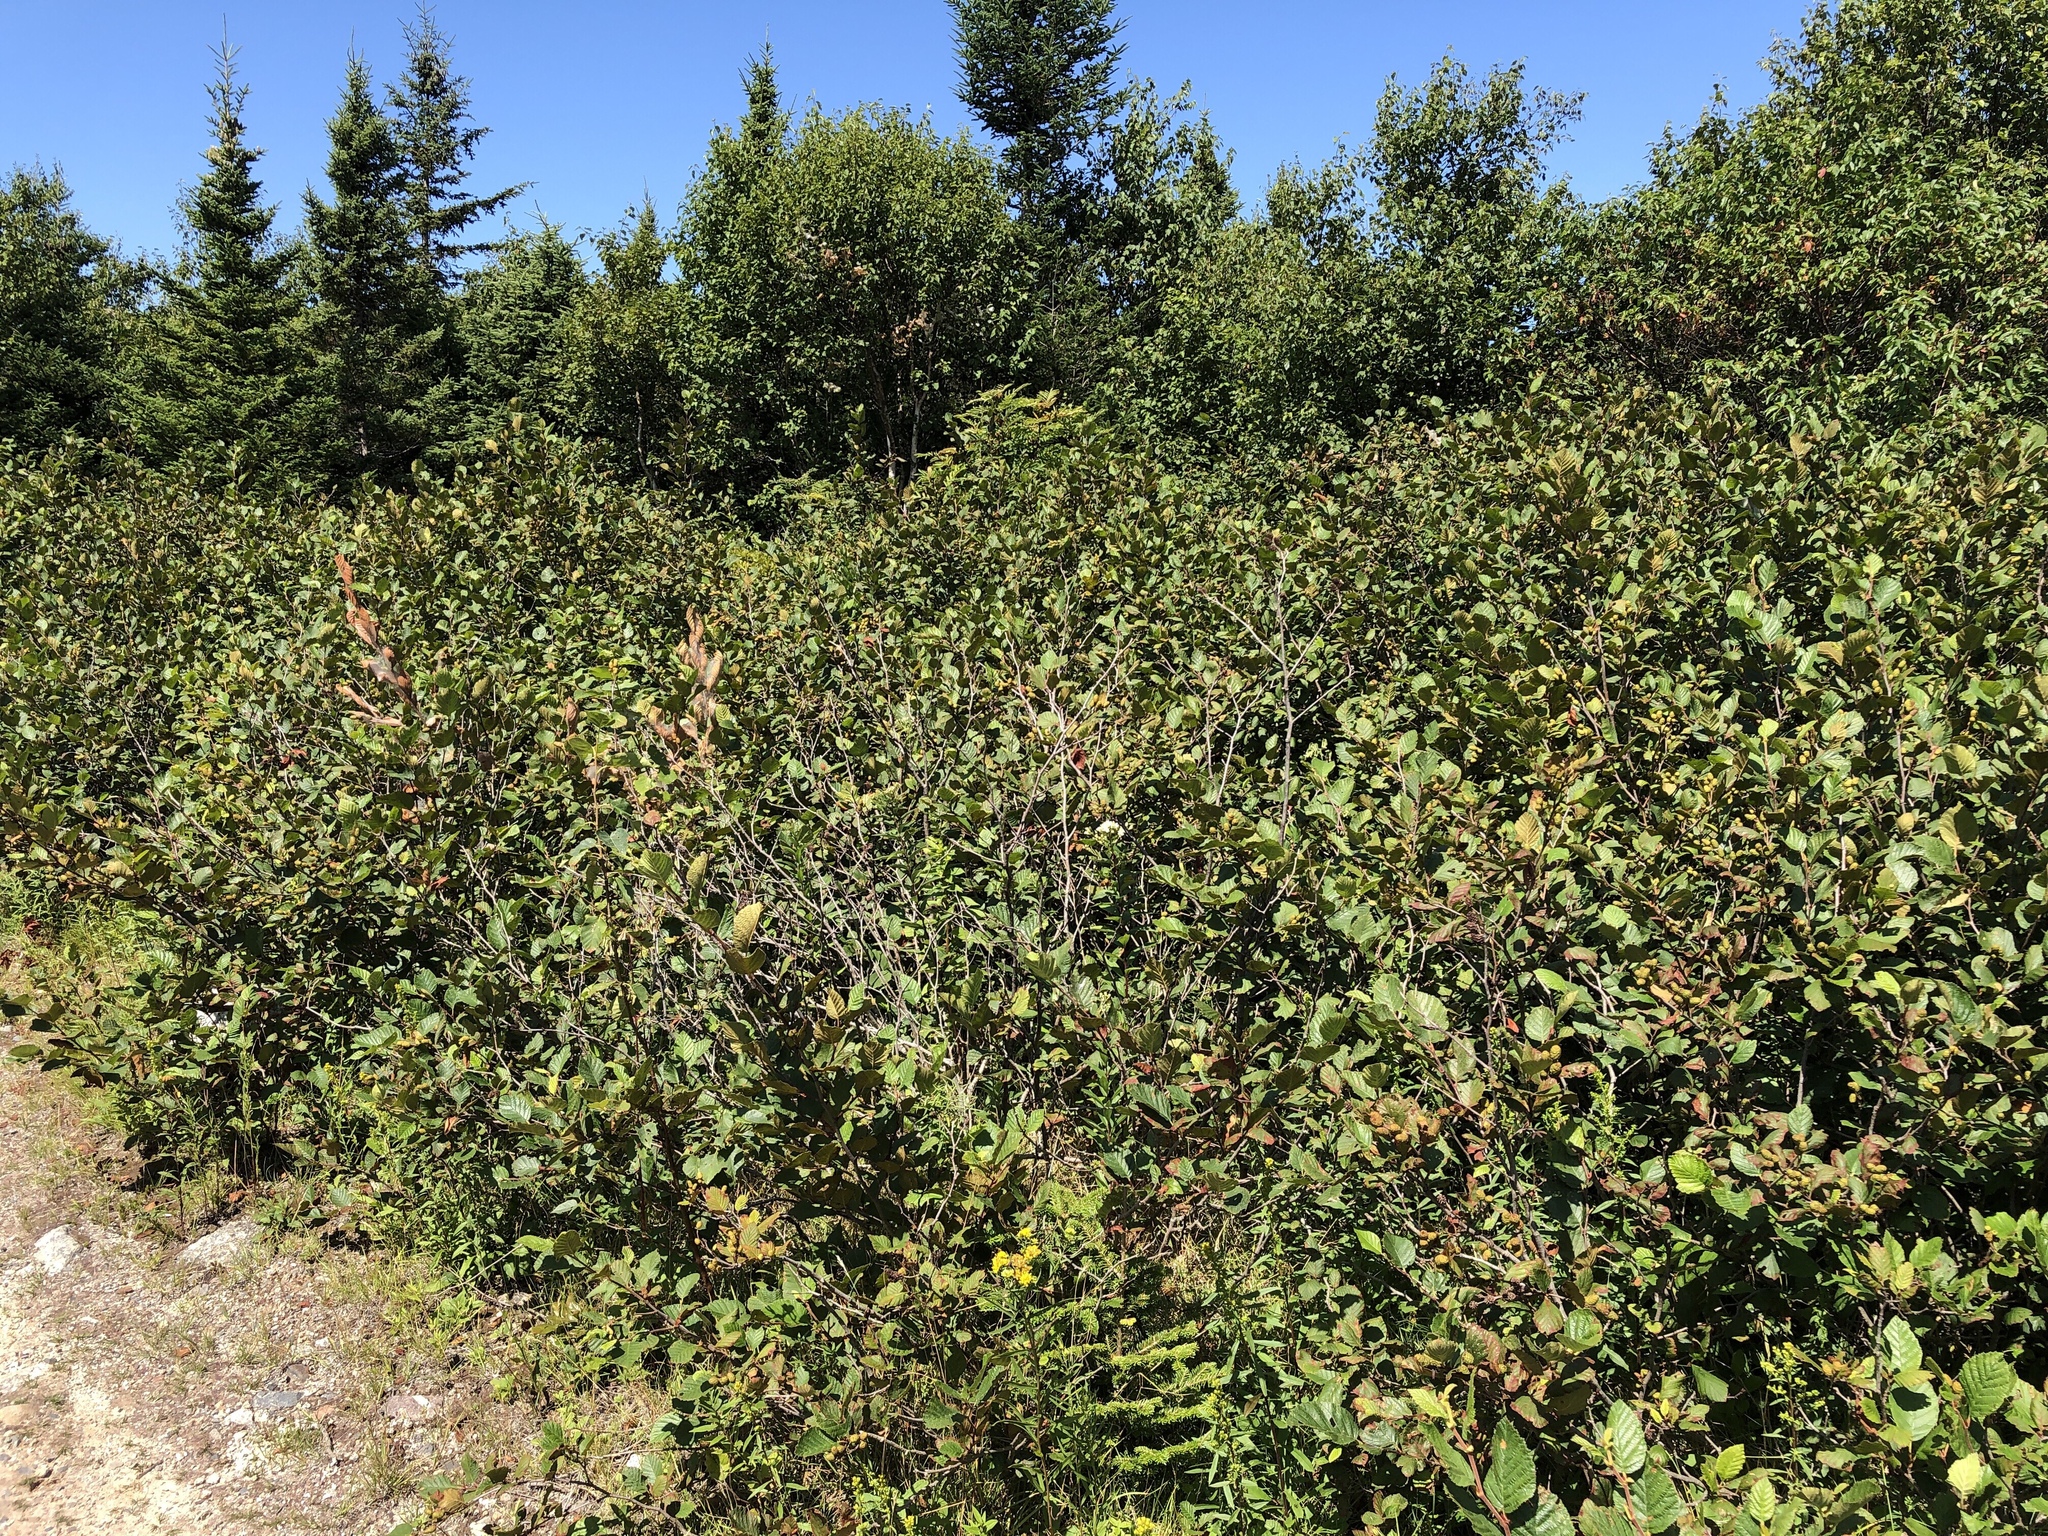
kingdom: Plantae
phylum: Tracheophyta
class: Magnoliopsida
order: Fagales
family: Betulaceae
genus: Alnus
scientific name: Alnus alnobetula
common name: Green alder
